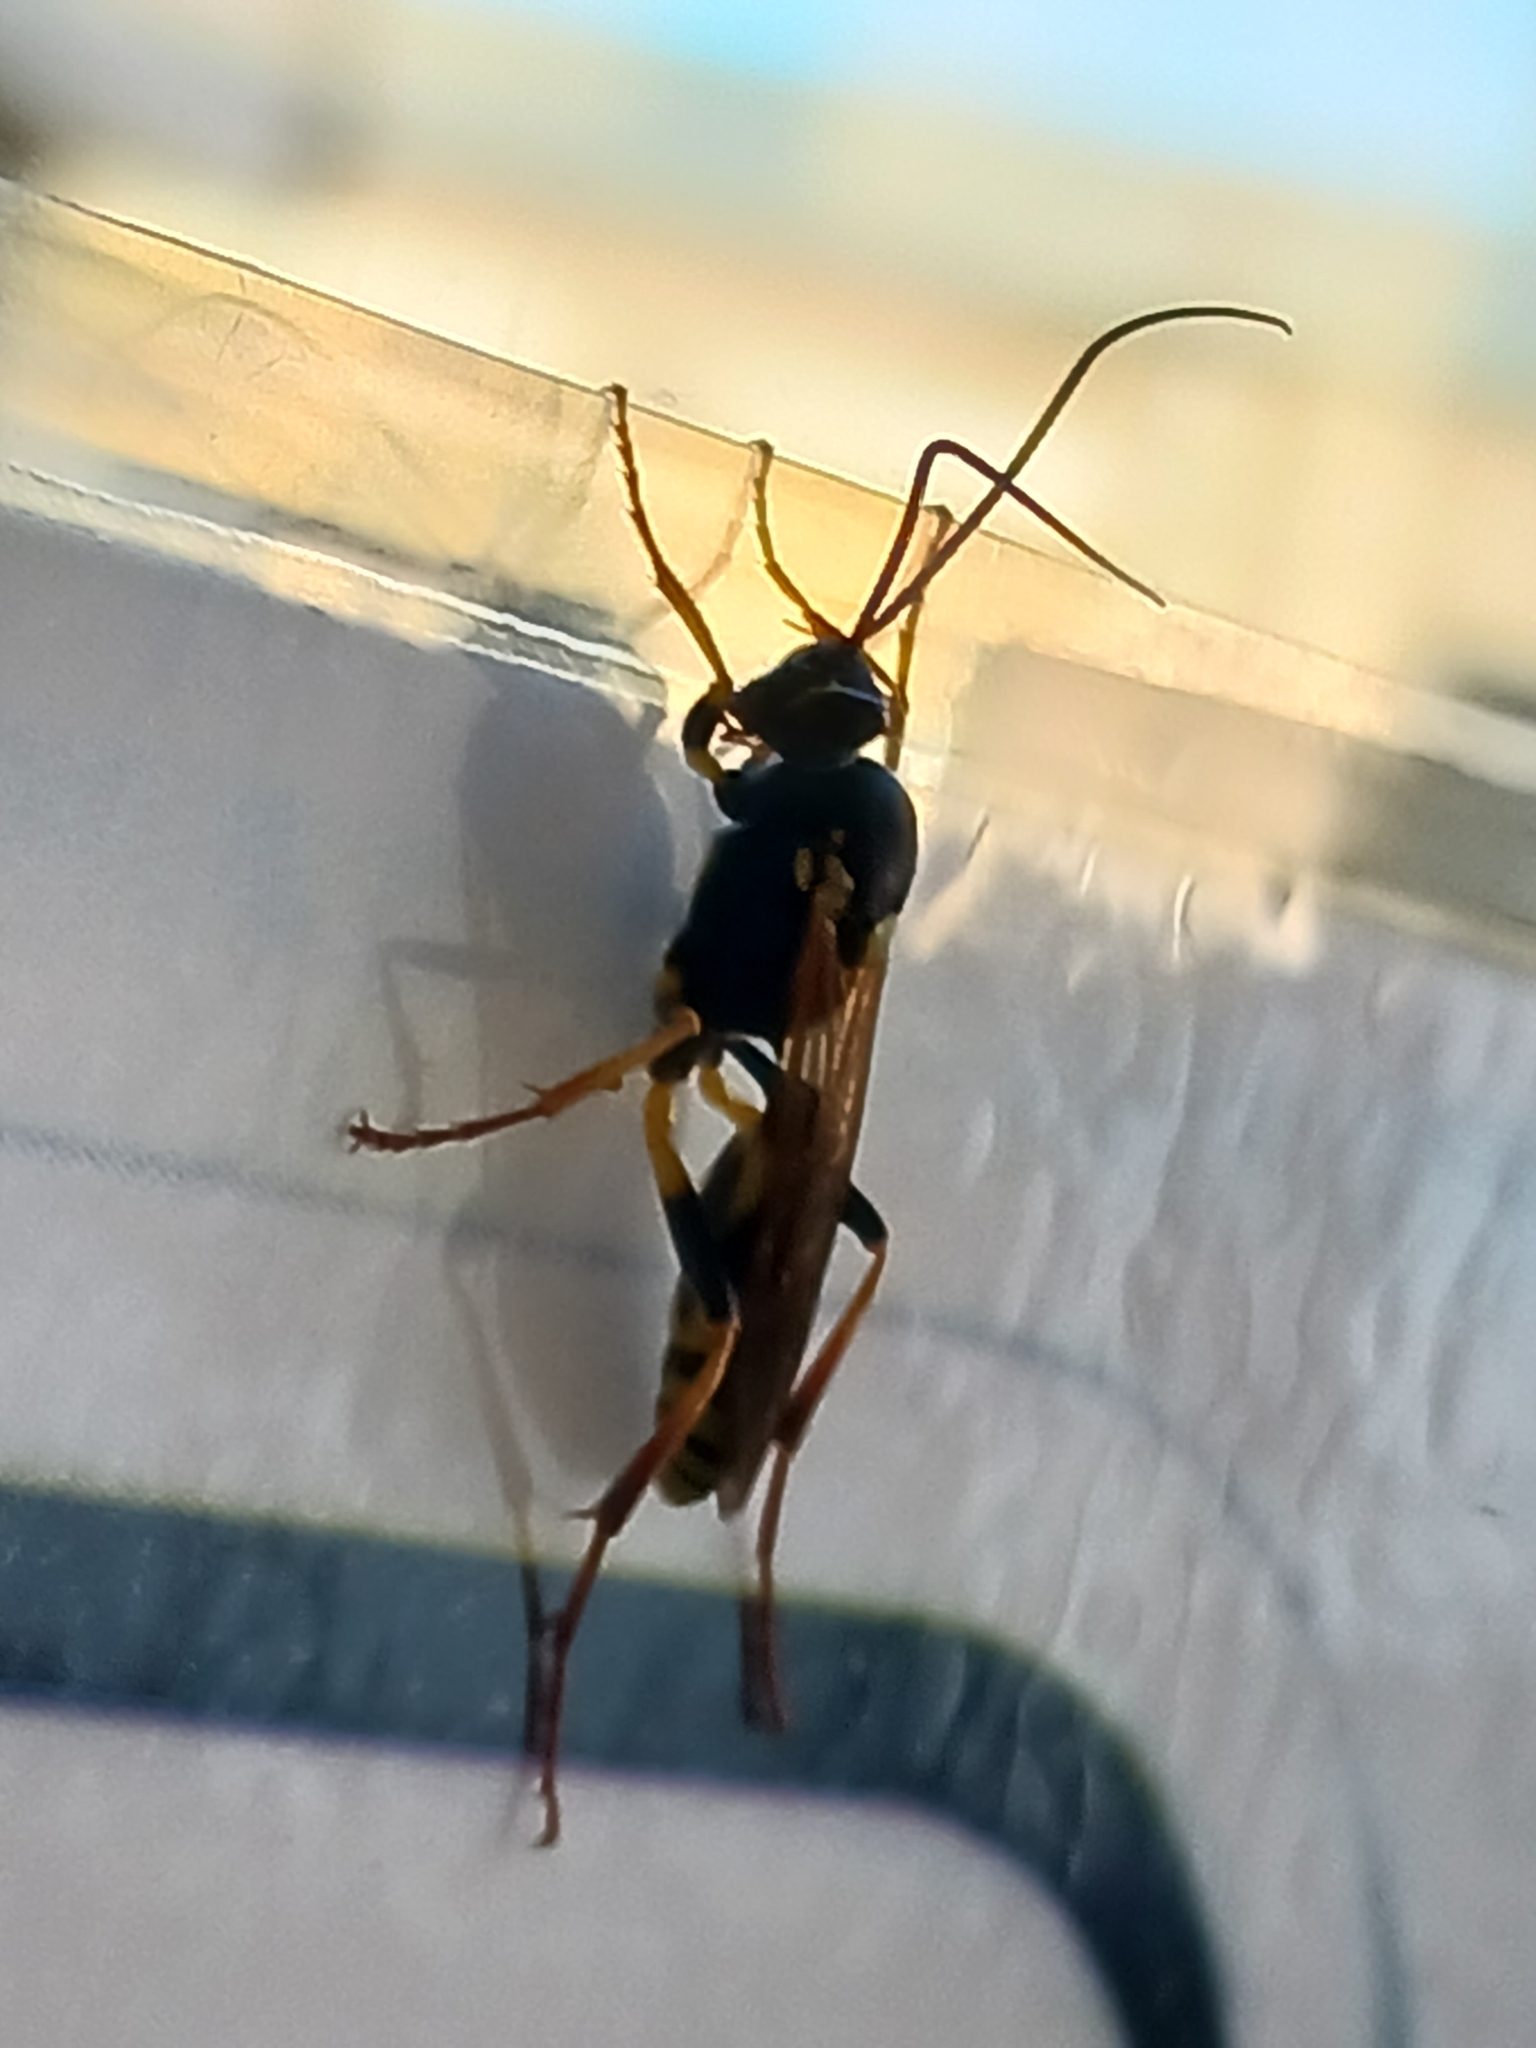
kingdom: Animalia
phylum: Arthropoda
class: Insecta
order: Hymenoptera
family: Ichneumonidae
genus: Amblyteles
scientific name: Amblyteles armatorius
